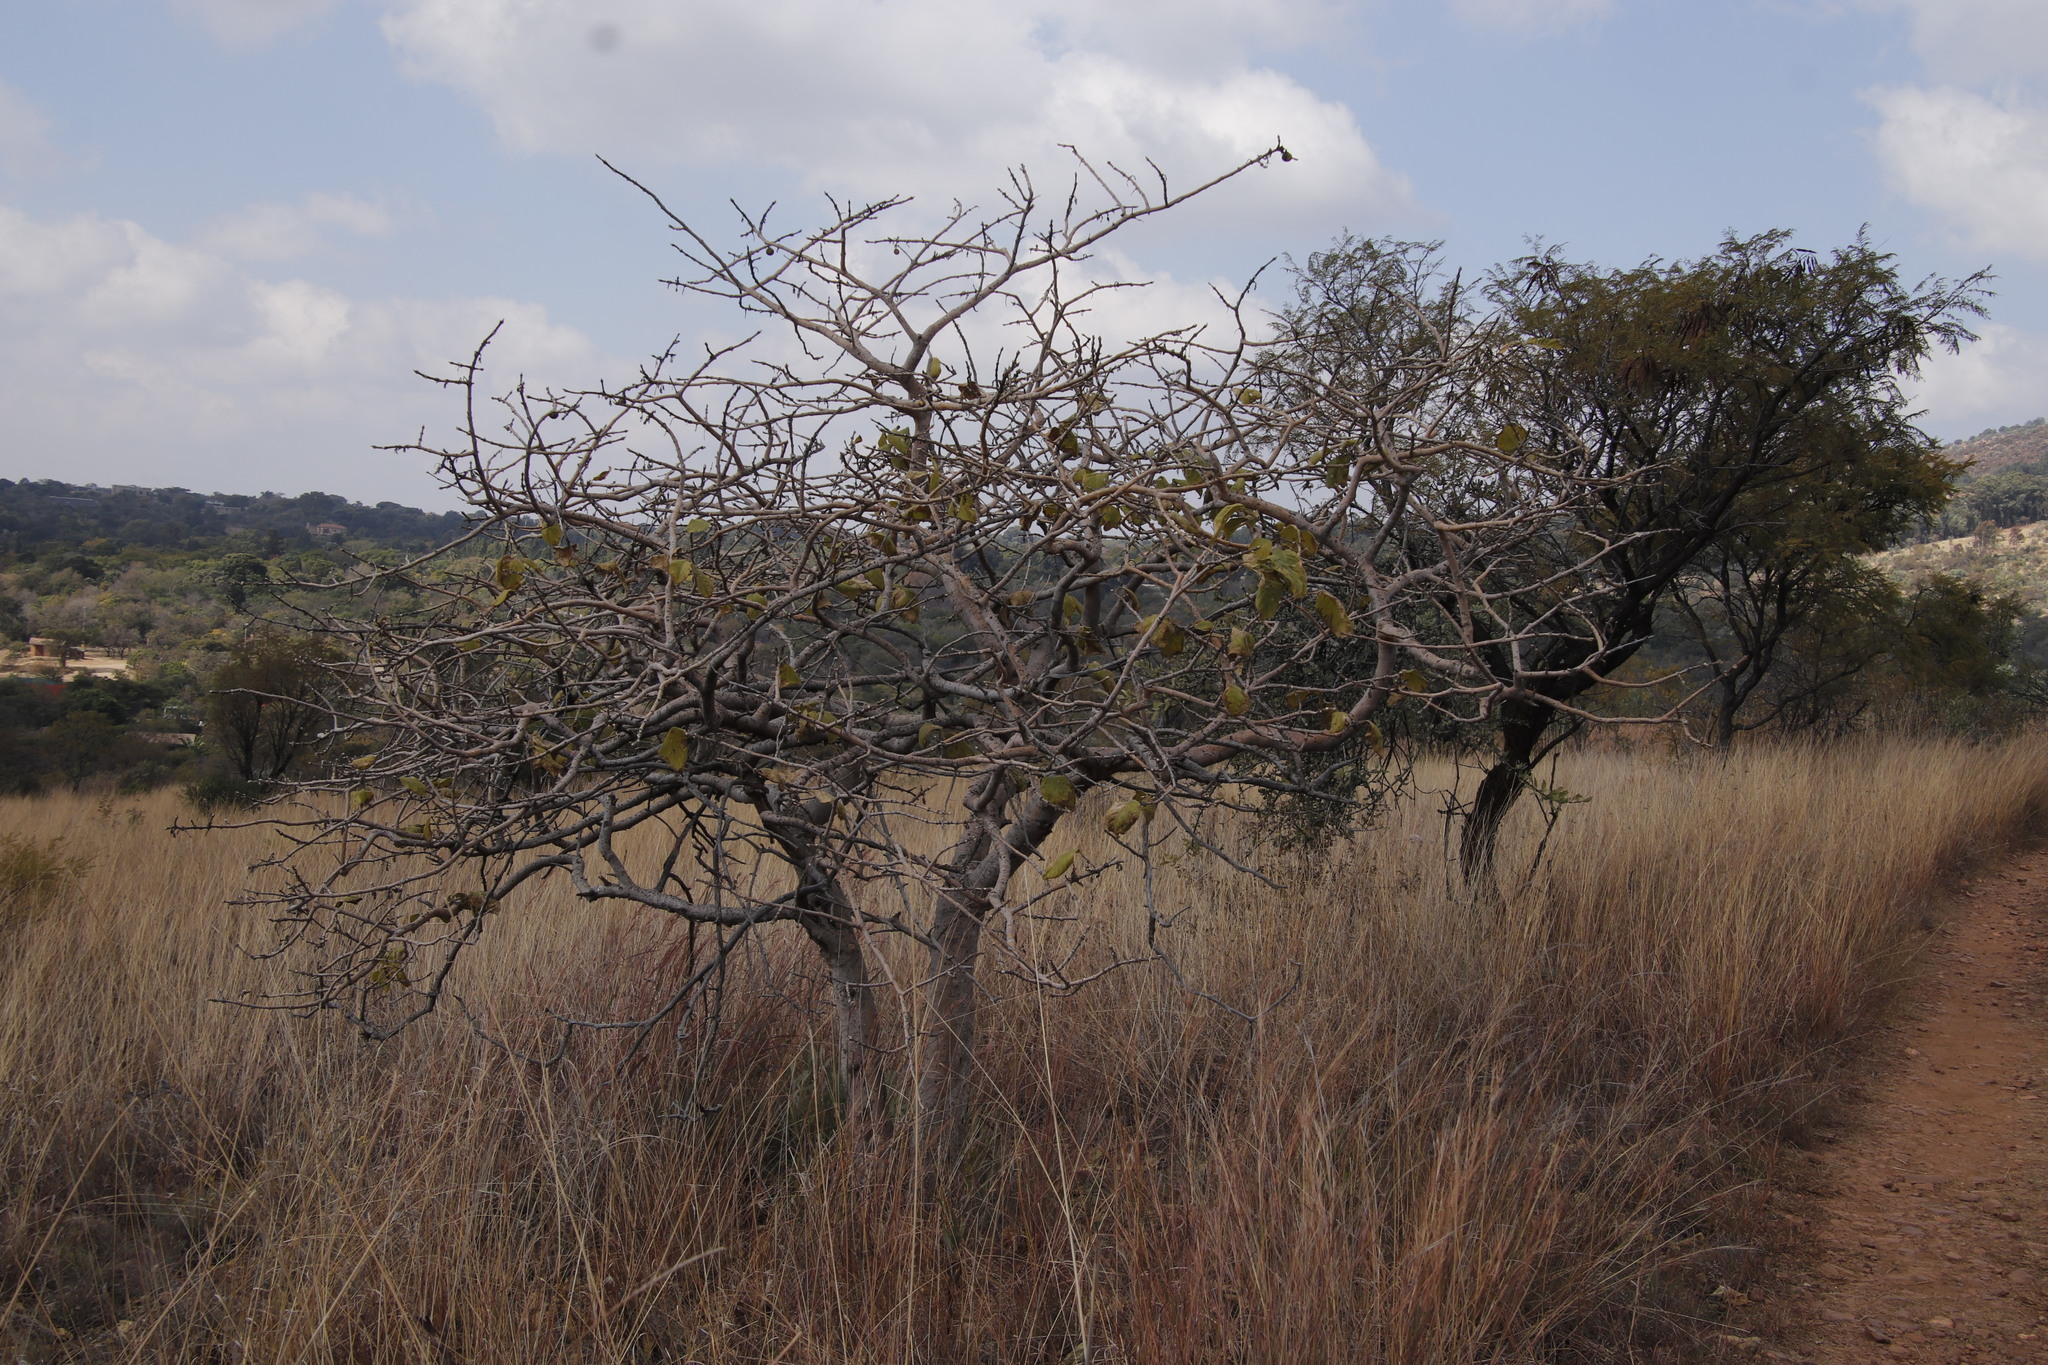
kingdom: Plantae
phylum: Tracheophyta
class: Magnoliopsida
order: Gentianales
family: Rubiaceae
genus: Vangueria
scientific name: Vangueria infausta
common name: Medlar
